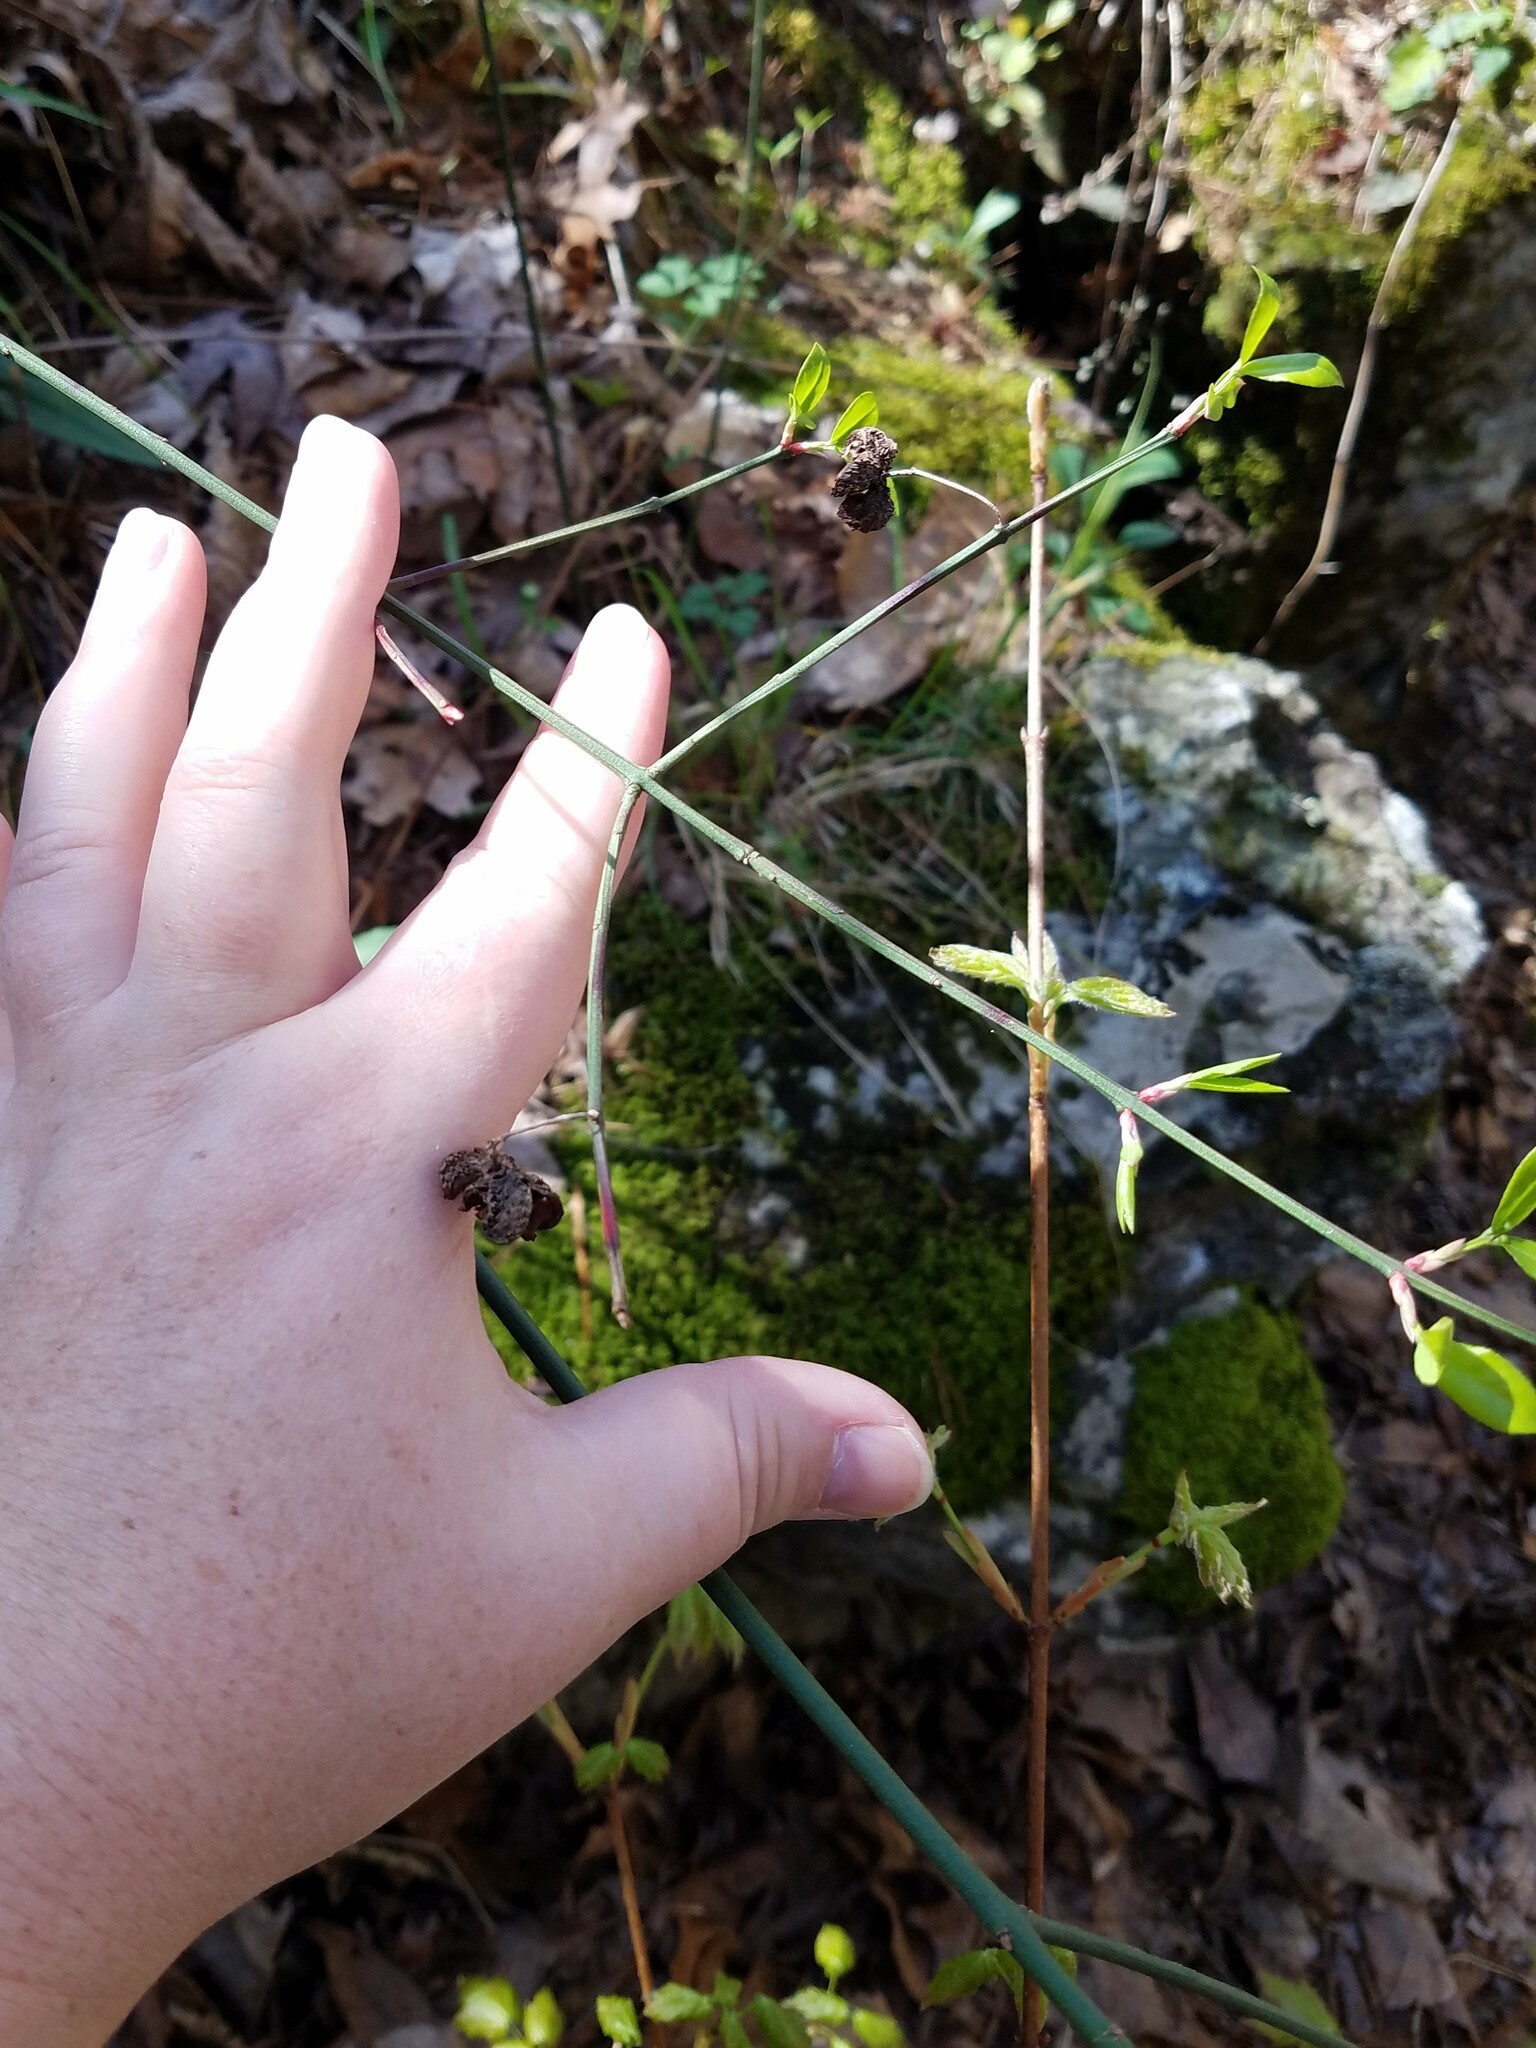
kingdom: Plantae
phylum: Tracheophyta
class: Magnoliopsida
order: Celastrales
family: Celastraceae
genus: Euonymus
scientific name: Euonymus americanus
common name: Bursting-heart
